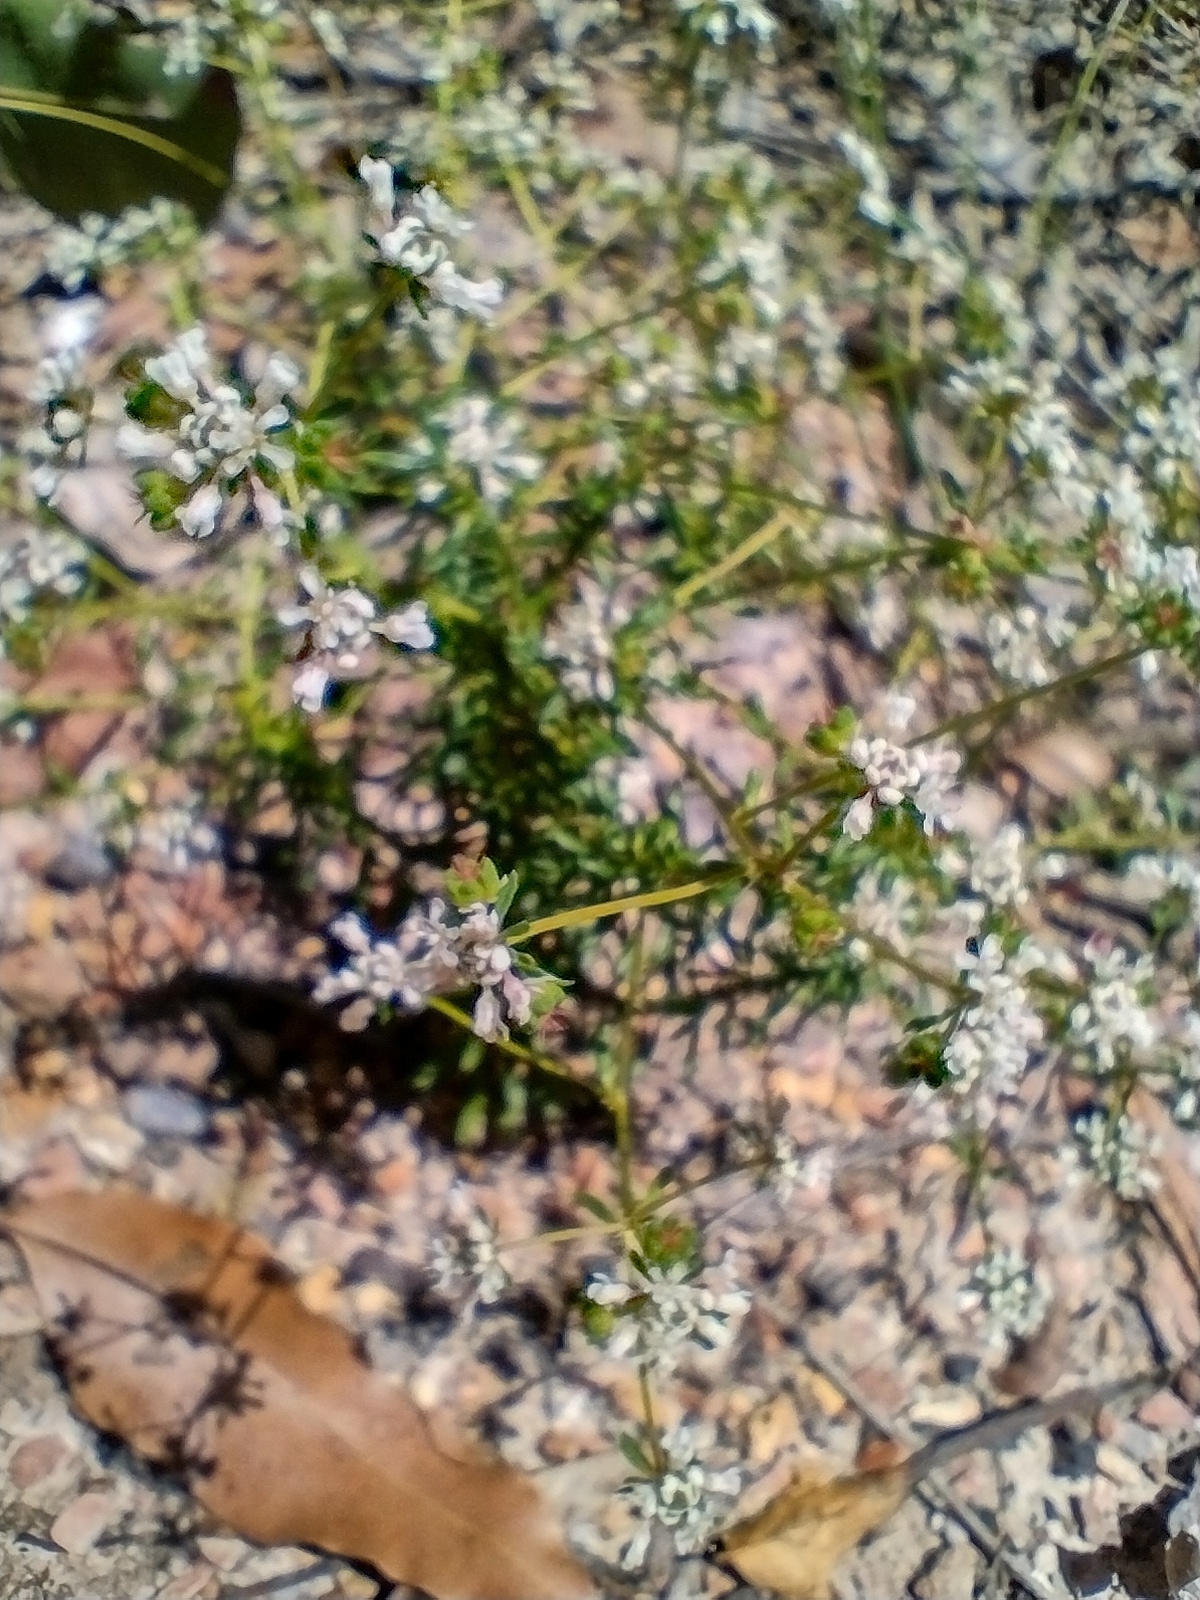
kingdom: Plantae
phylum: Tracheophyta
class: Magnoliopsida
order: Malpighiales
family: Phyllanthaceae
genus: Poranthera
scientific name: Poranthera ericifolia
